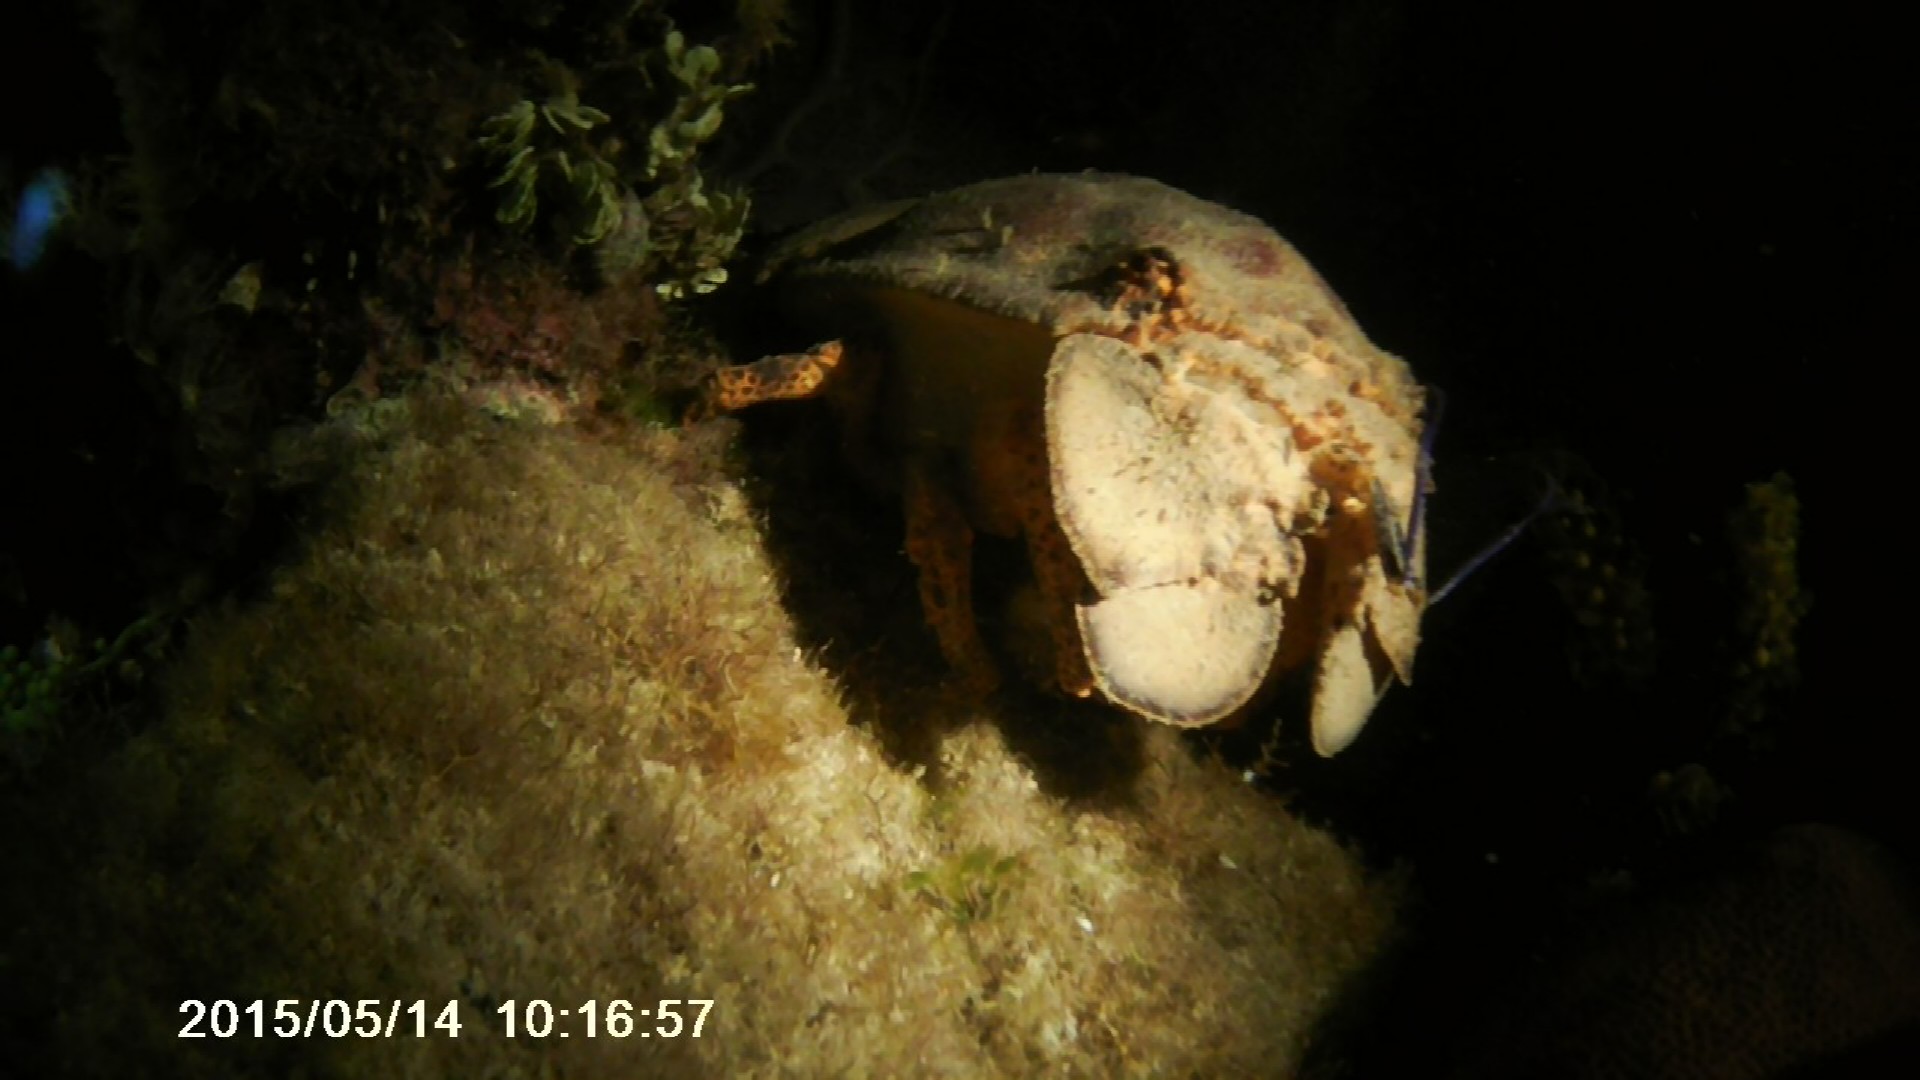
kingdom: Animalia
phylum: Arthropoda
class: Malacostraca
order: Decapoda
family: Scyllaridae
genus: Scyllarides
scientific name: Scyllarides aequinoctialis
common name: Spanish slipper lobster
